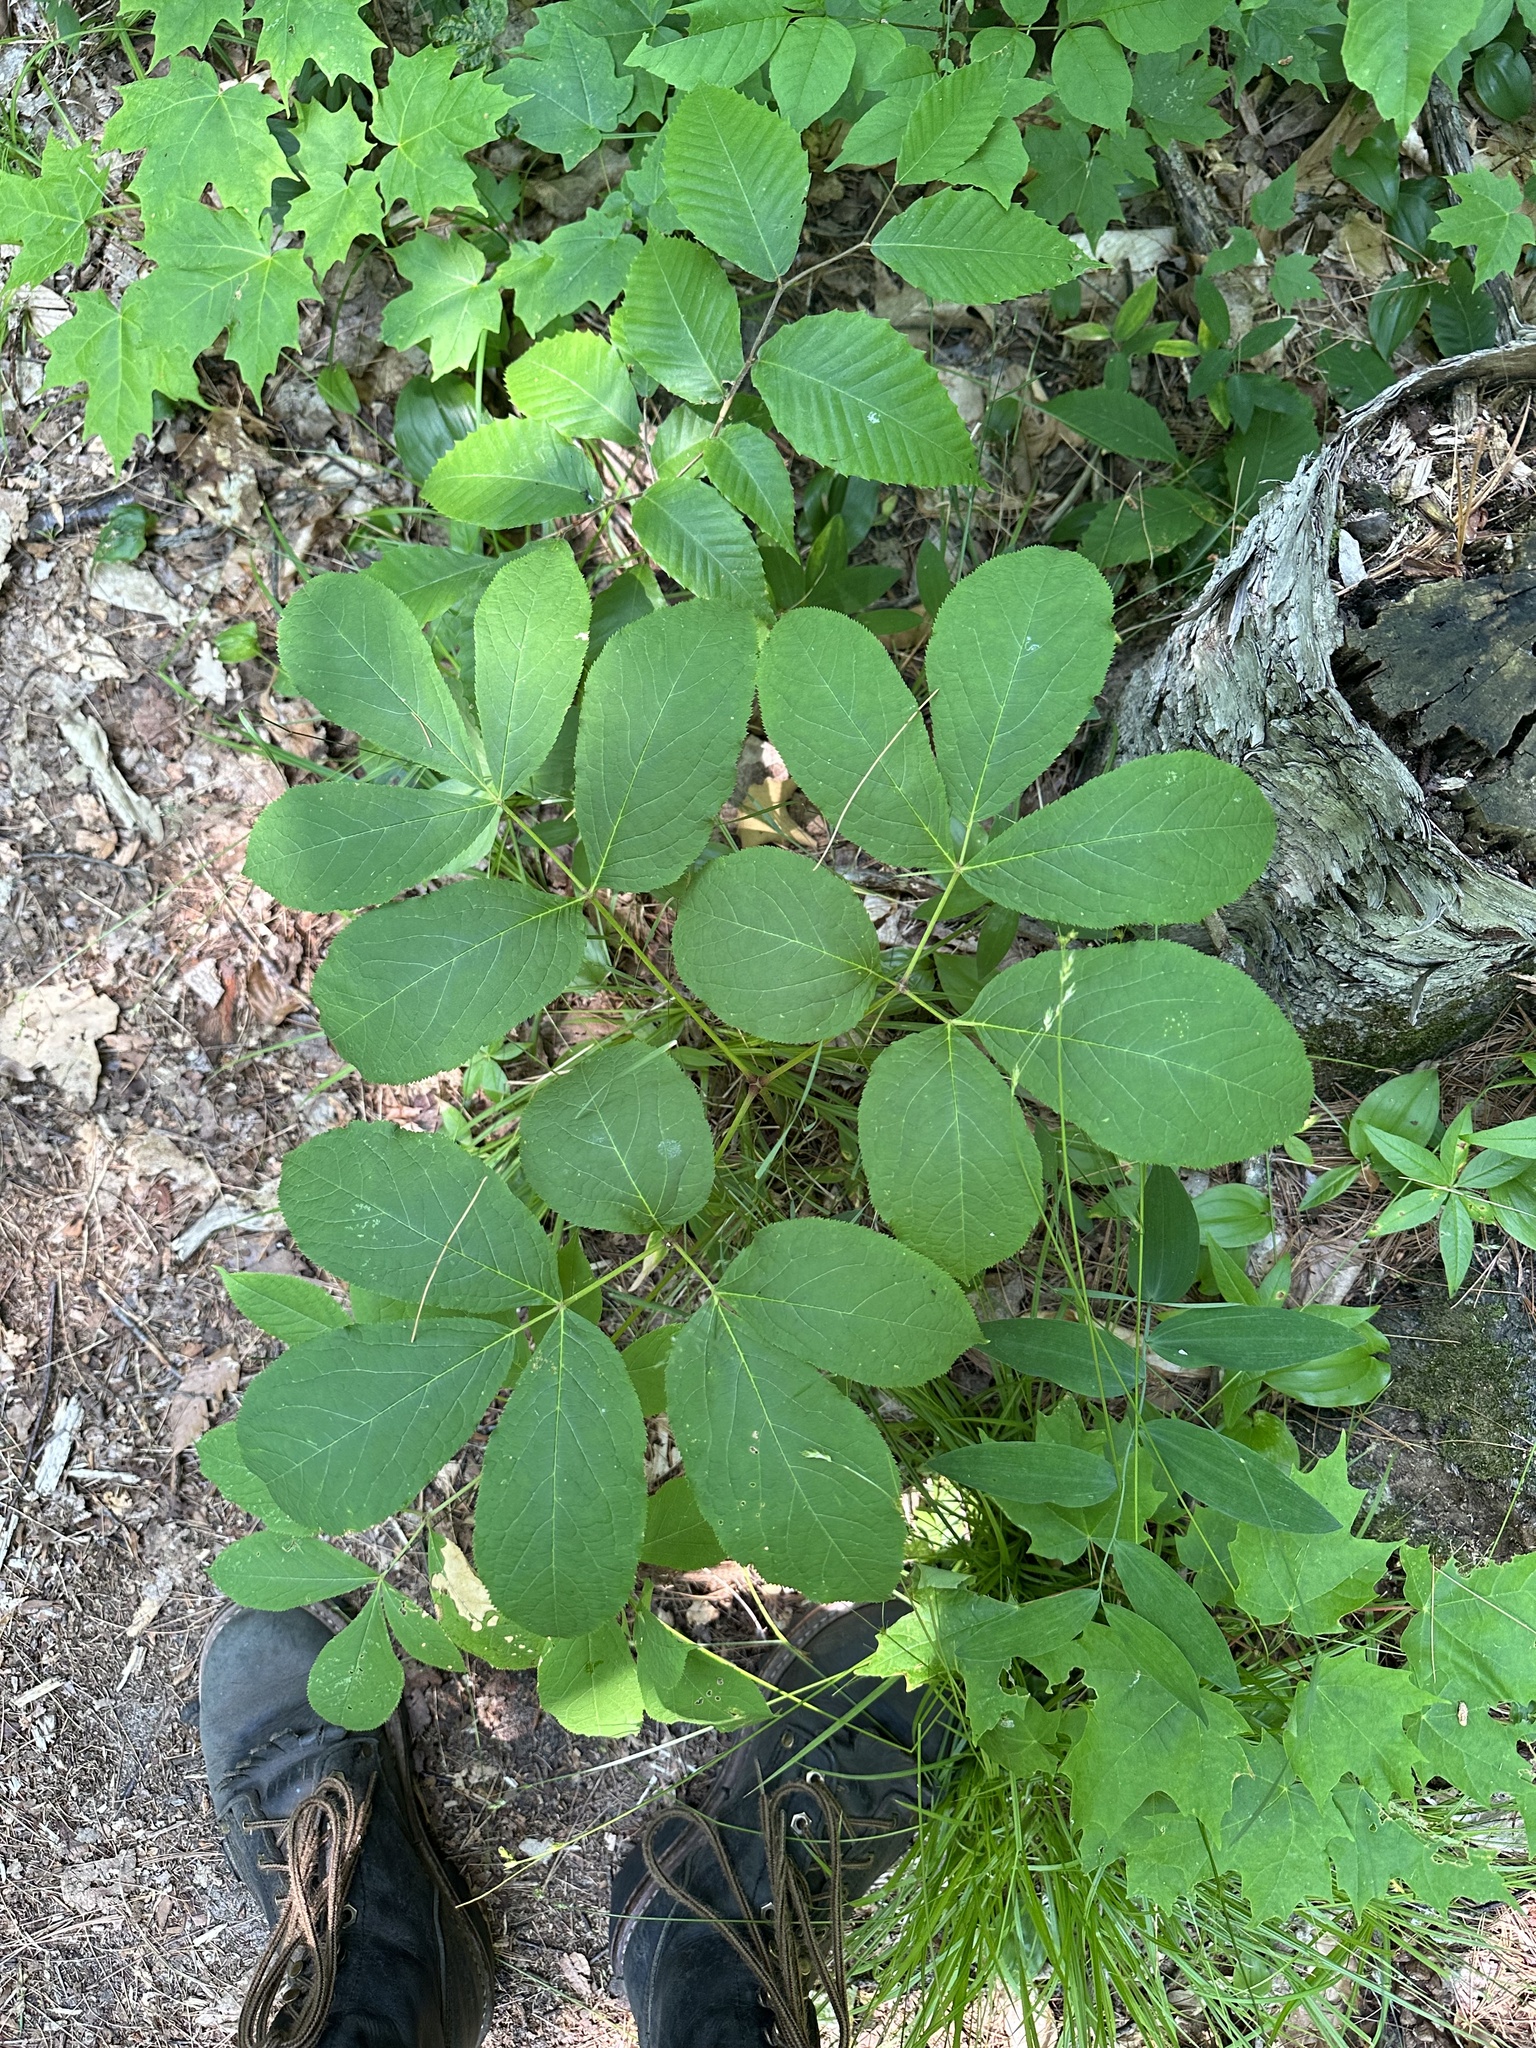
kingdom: Plantae
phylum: Tracheophyta
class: Magnoliopsida
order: Apiales
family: Araliaceae
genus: Aralia
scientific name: Aralia nudicaulis
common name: Wild sarsaparilla
